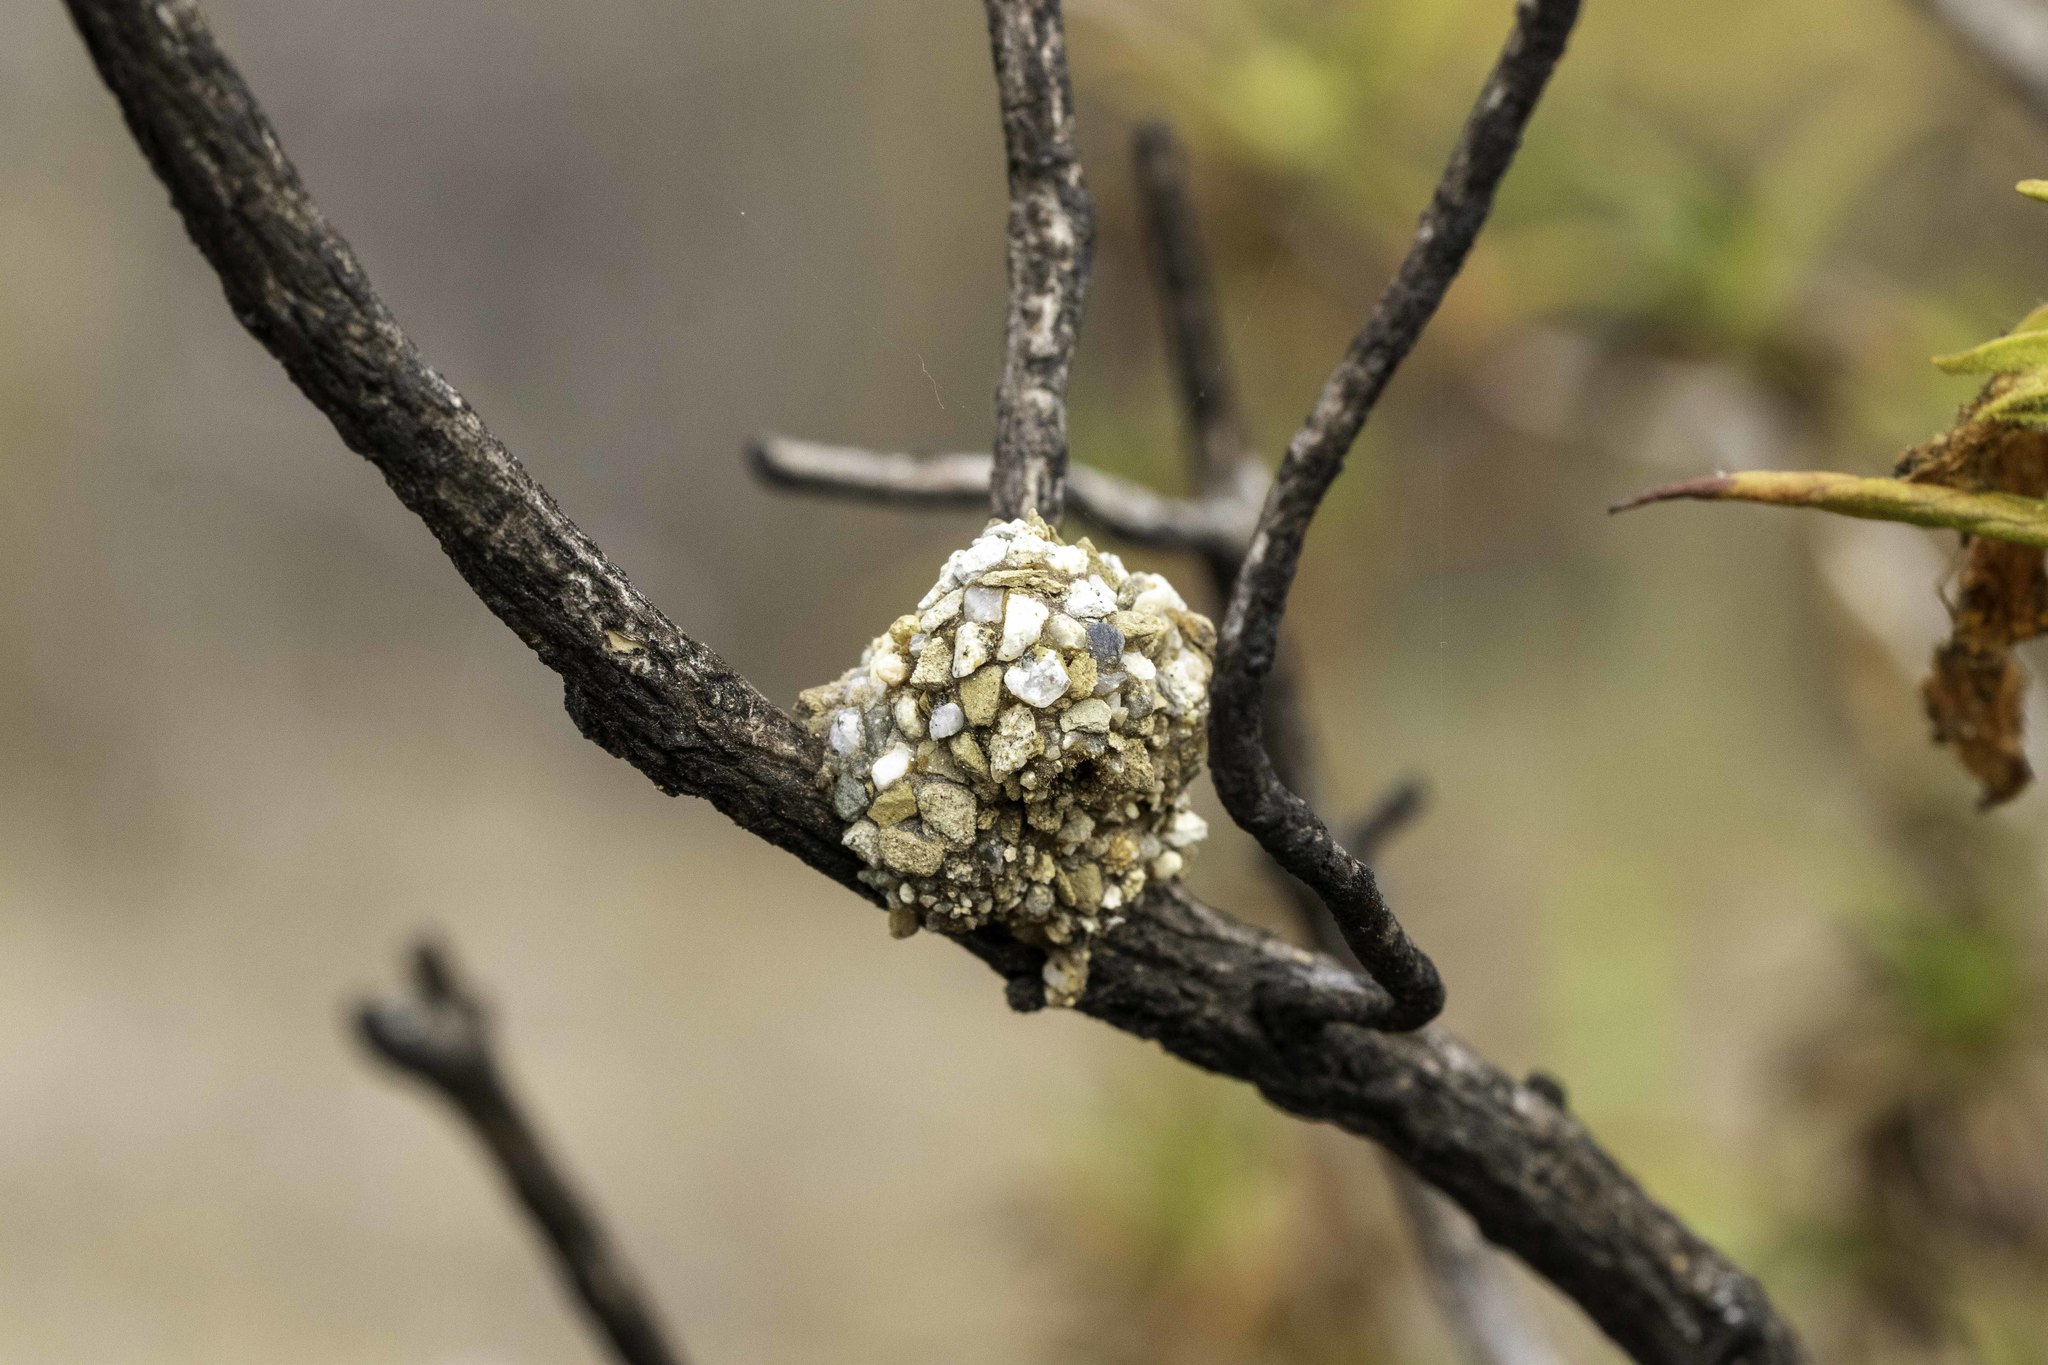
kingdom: Animalia
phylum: Arthropoda
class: Insecta
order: Hymenoptera
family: Megachilidae
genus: Dianthidium
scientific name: Dianthidium
